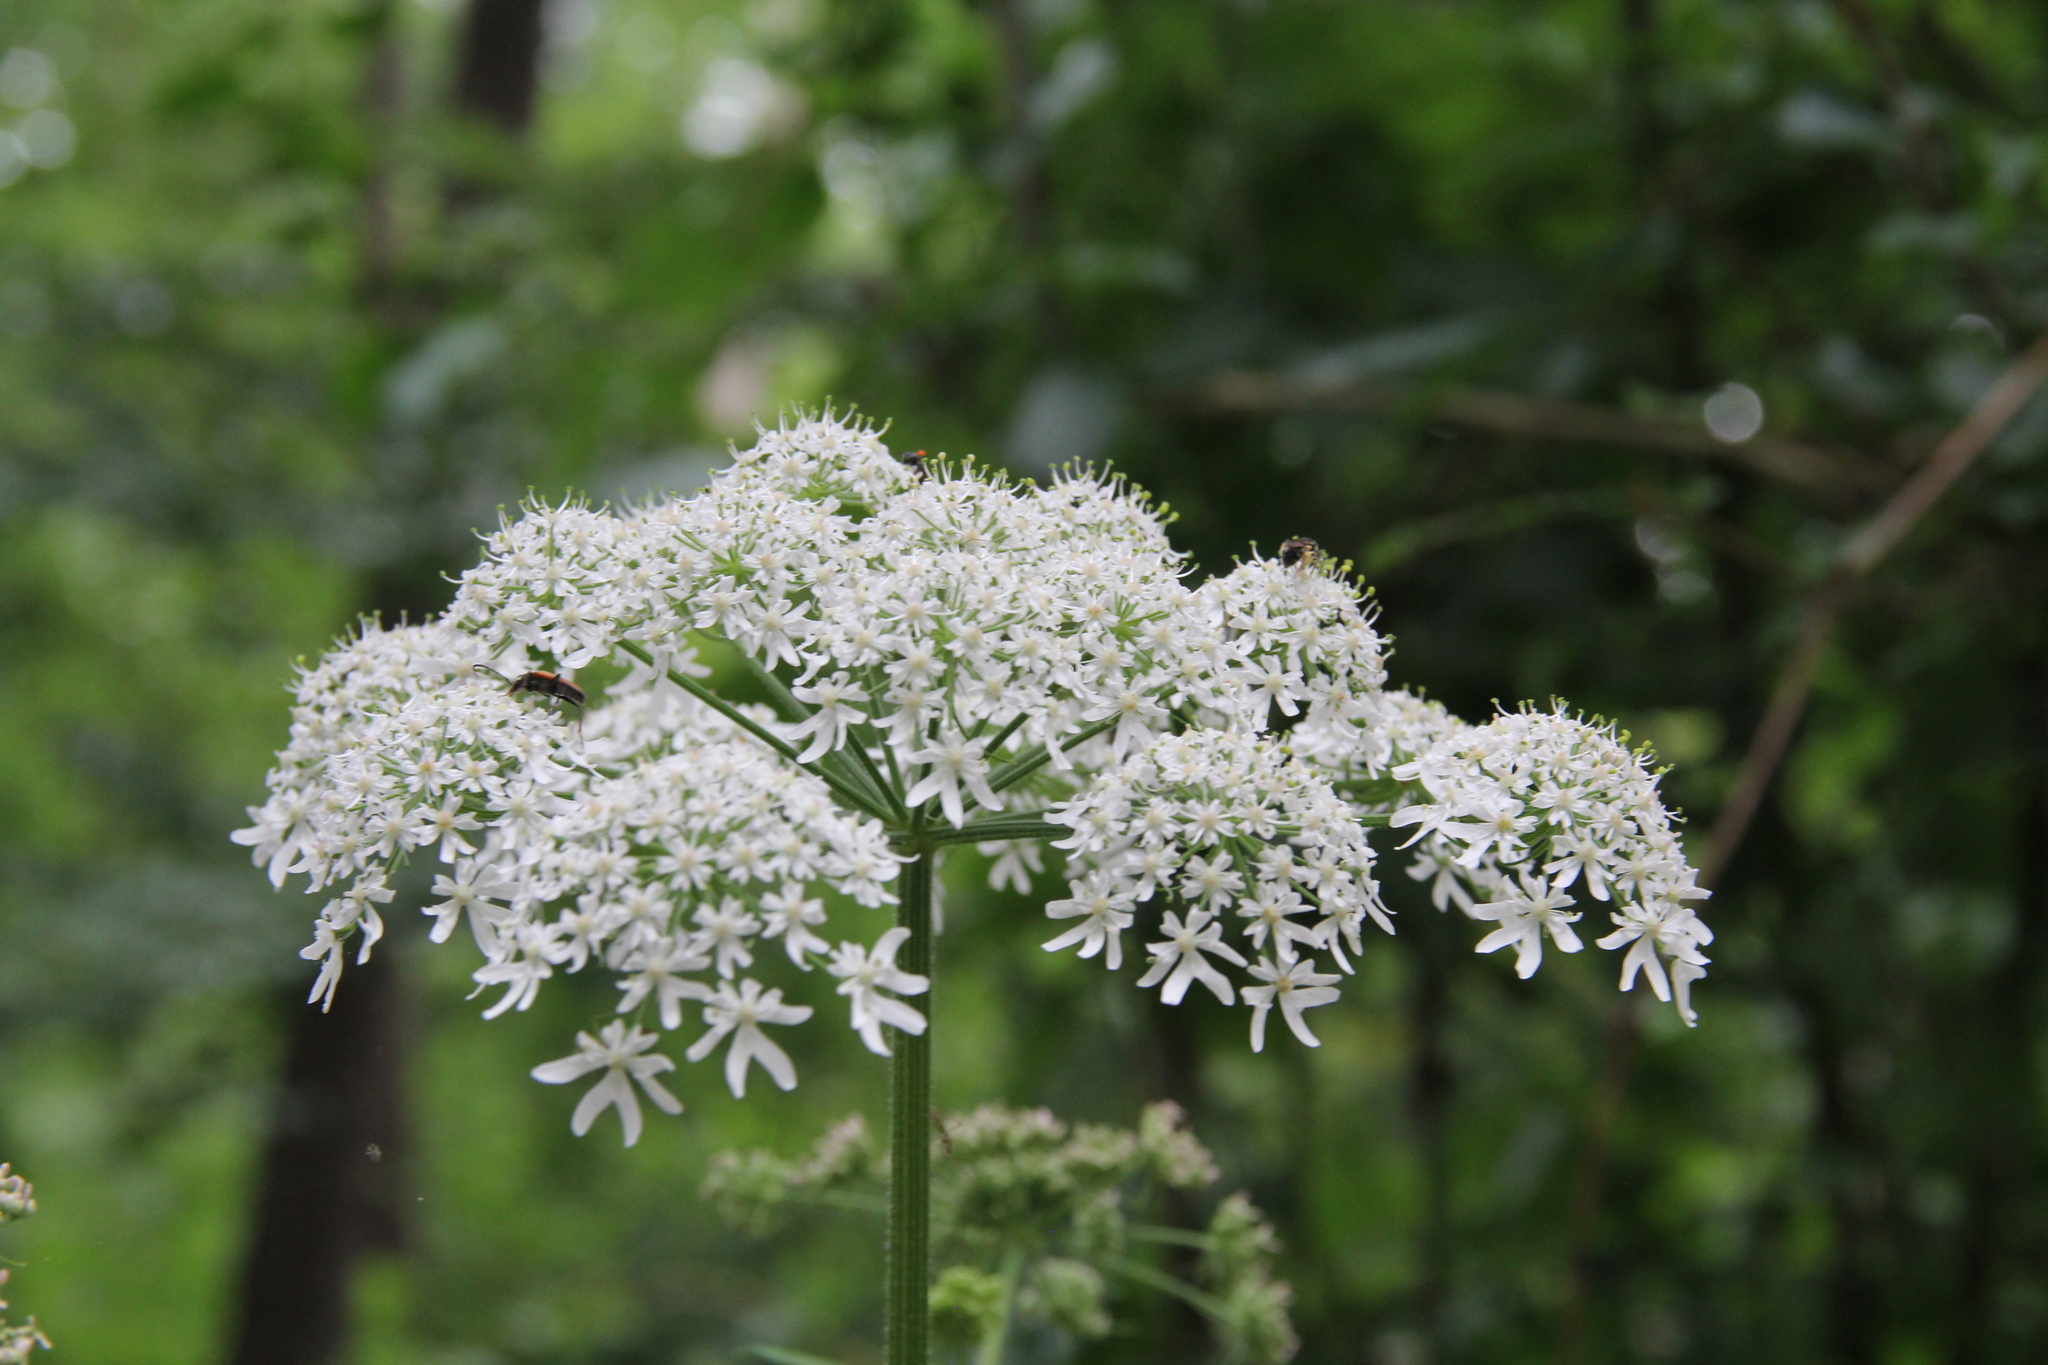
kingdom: Plantae
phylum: Tracheophyta
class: Magnoliopsida
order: Apiales
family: Apiaceae
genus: Heracleum
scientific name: Heracleum sphondylium
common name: Hogweed
